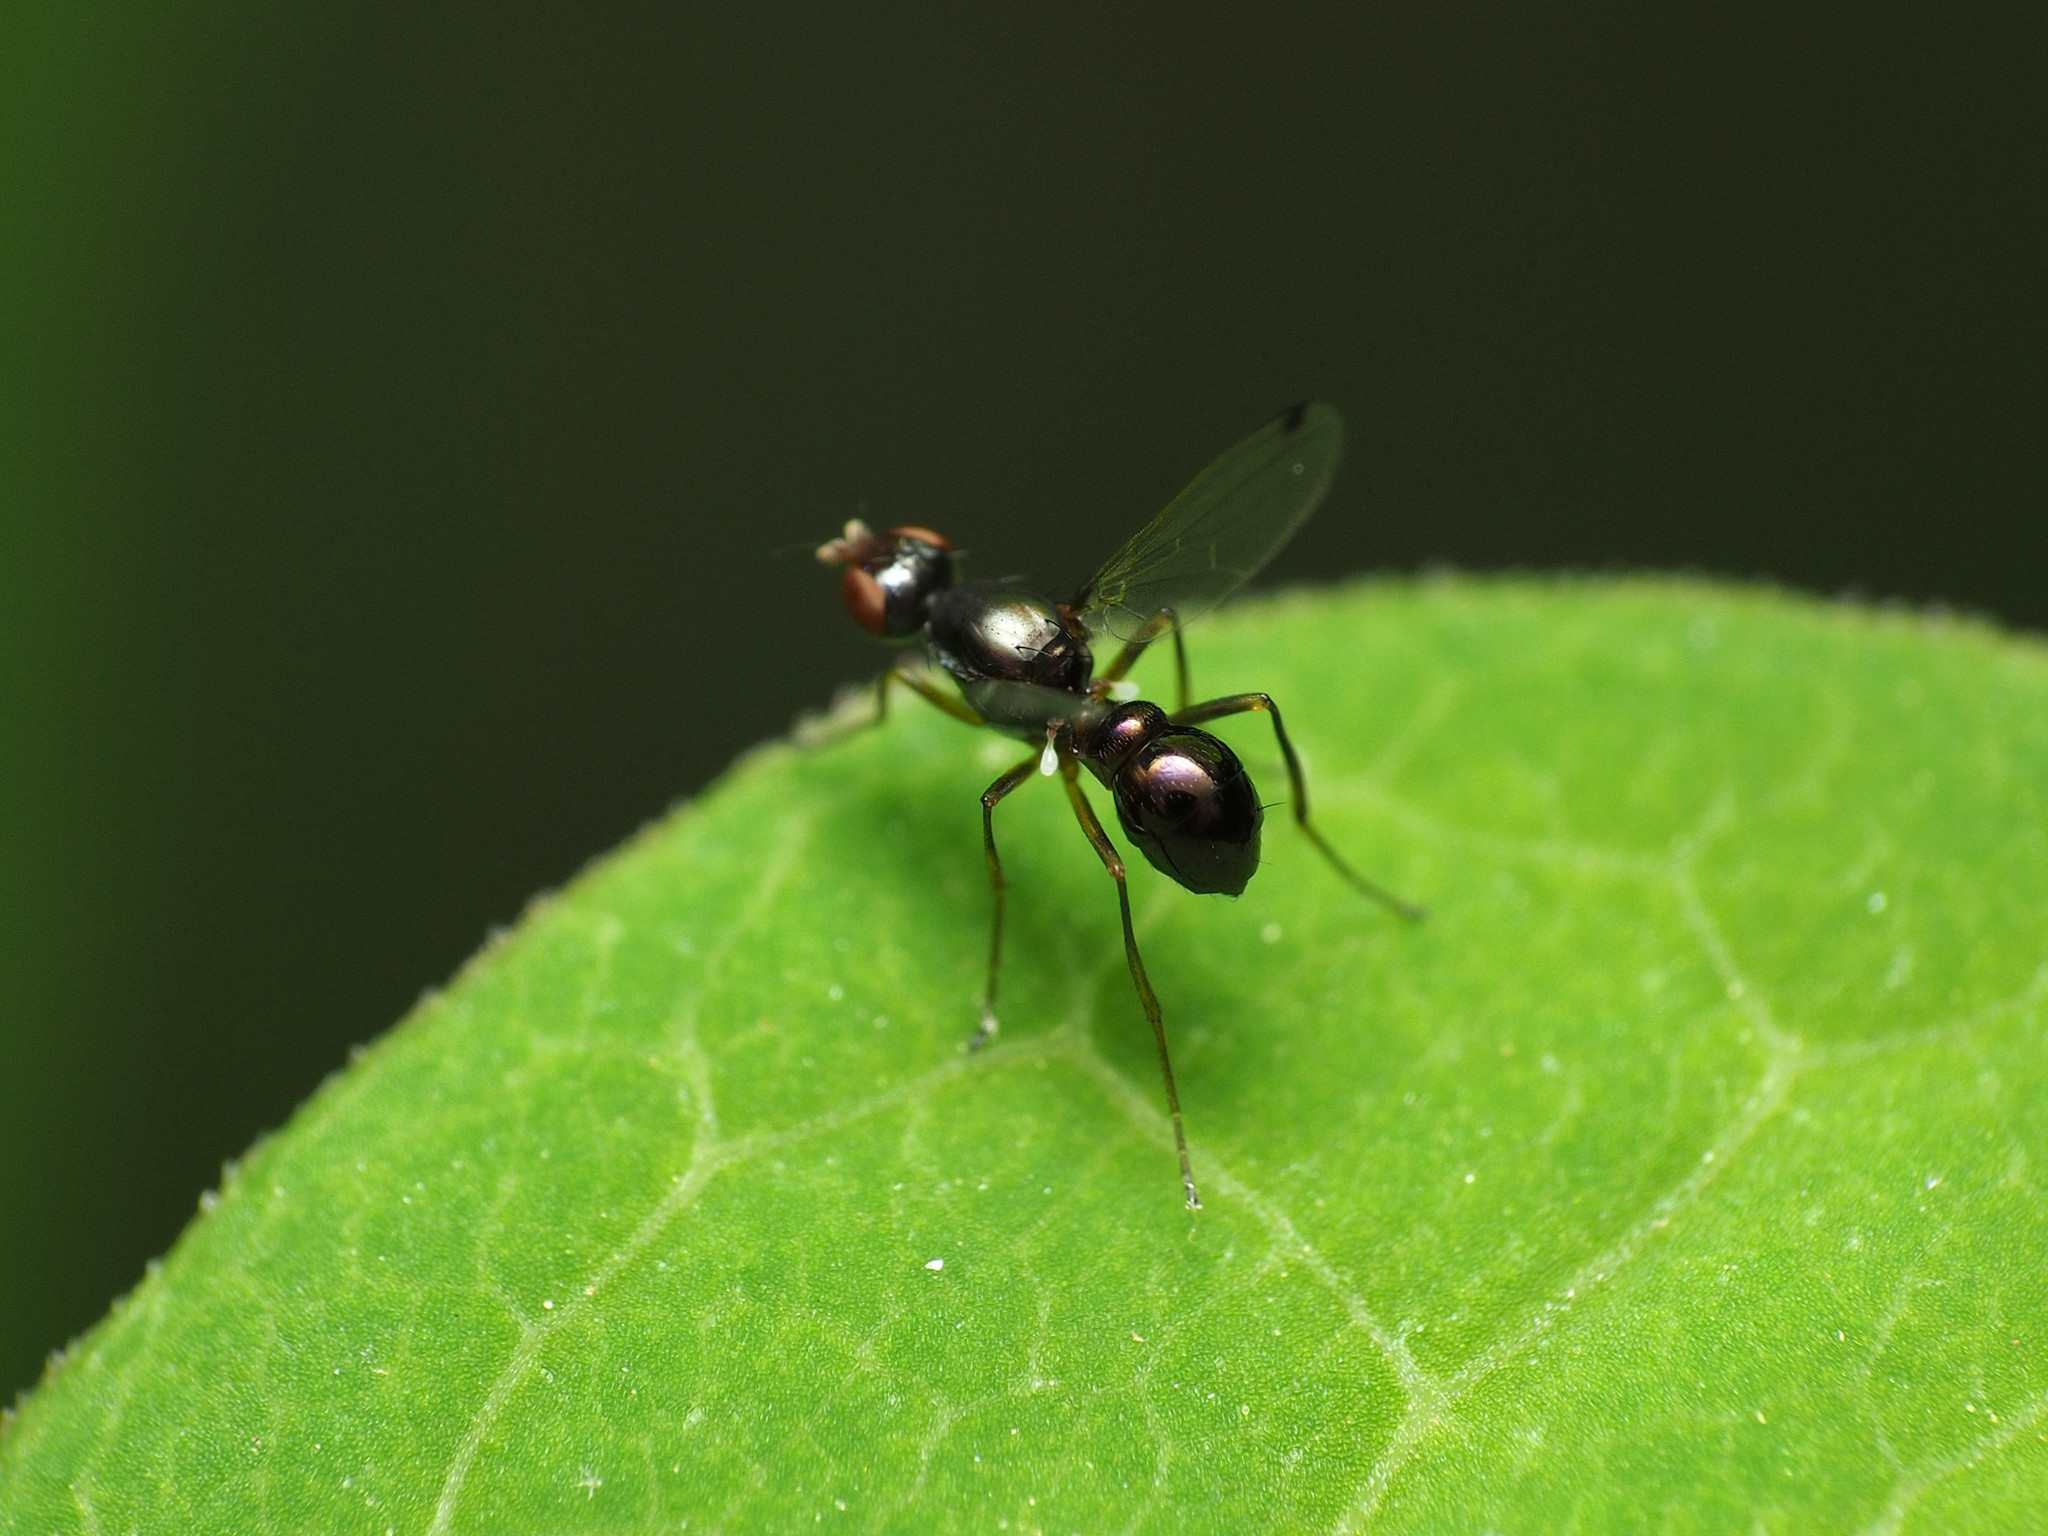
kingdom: Animalia
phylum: Arthropoda
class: Insecta
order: Diptera
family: Sepsidae
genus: Sepsis
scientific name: Sepsis punctum
